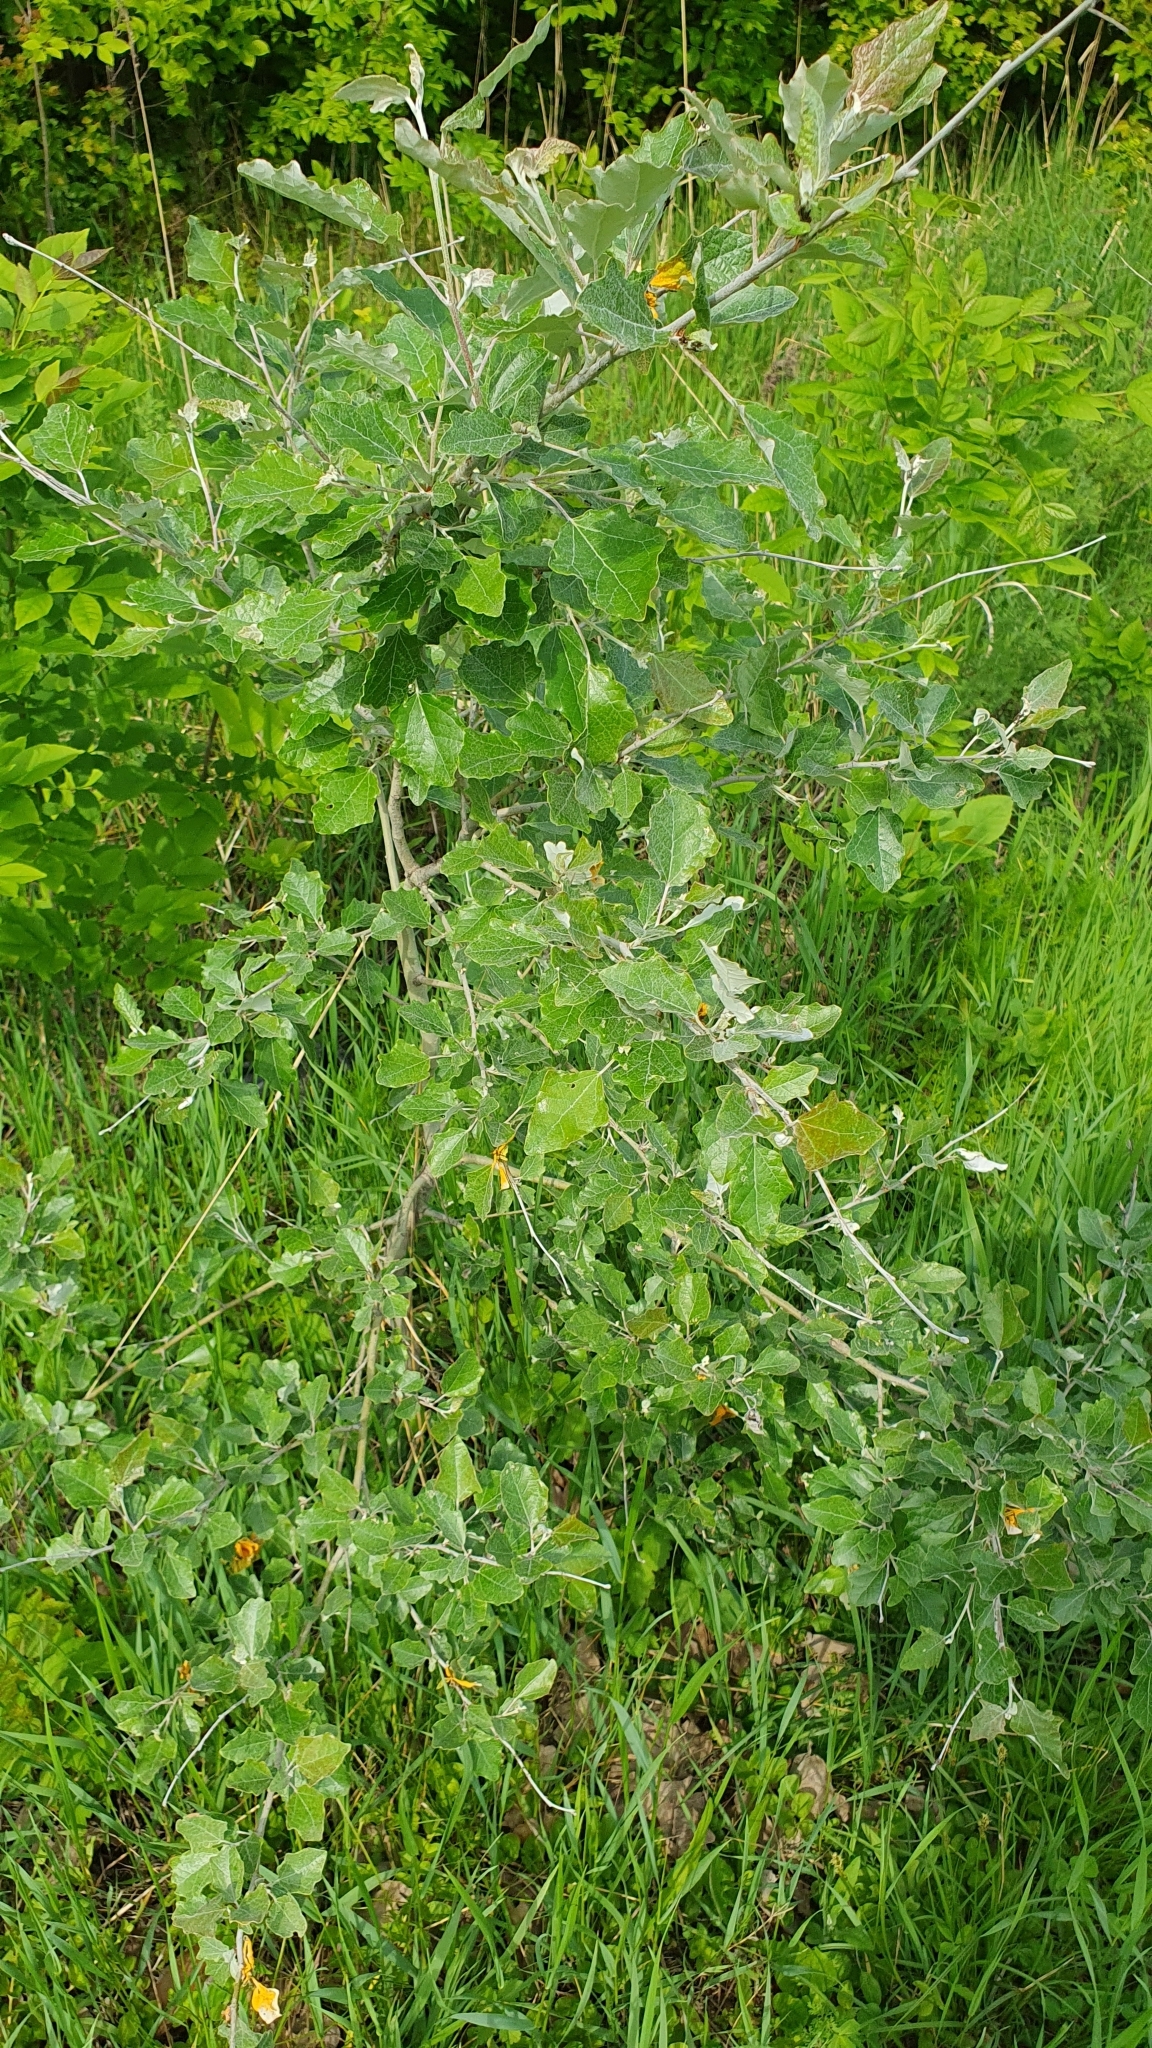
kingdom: Plantae
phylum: Tracheophyta
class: Magnoliopsida
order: Malpighiales
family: Salicaceae
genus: Populus
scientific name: Populus alba
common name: White poplar
